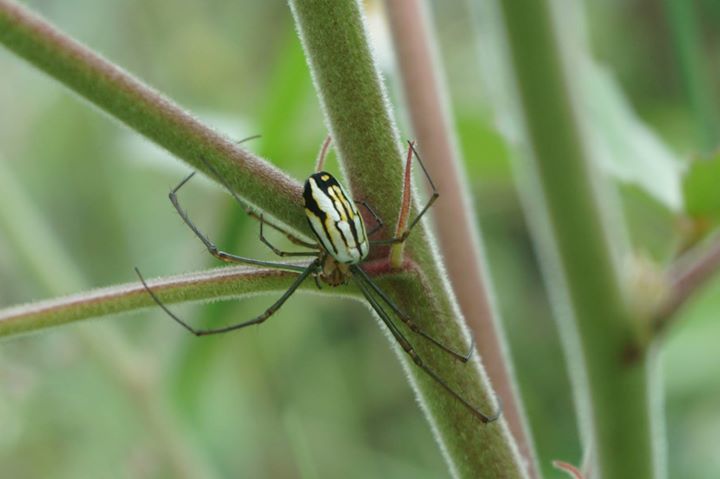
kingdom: Animalia
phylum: Arthropoda
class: Arachnida
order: Araneae
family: Tetragnathidae
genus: Leucauge
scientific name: Leucauge argyra
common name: Longjawed orb weavers
